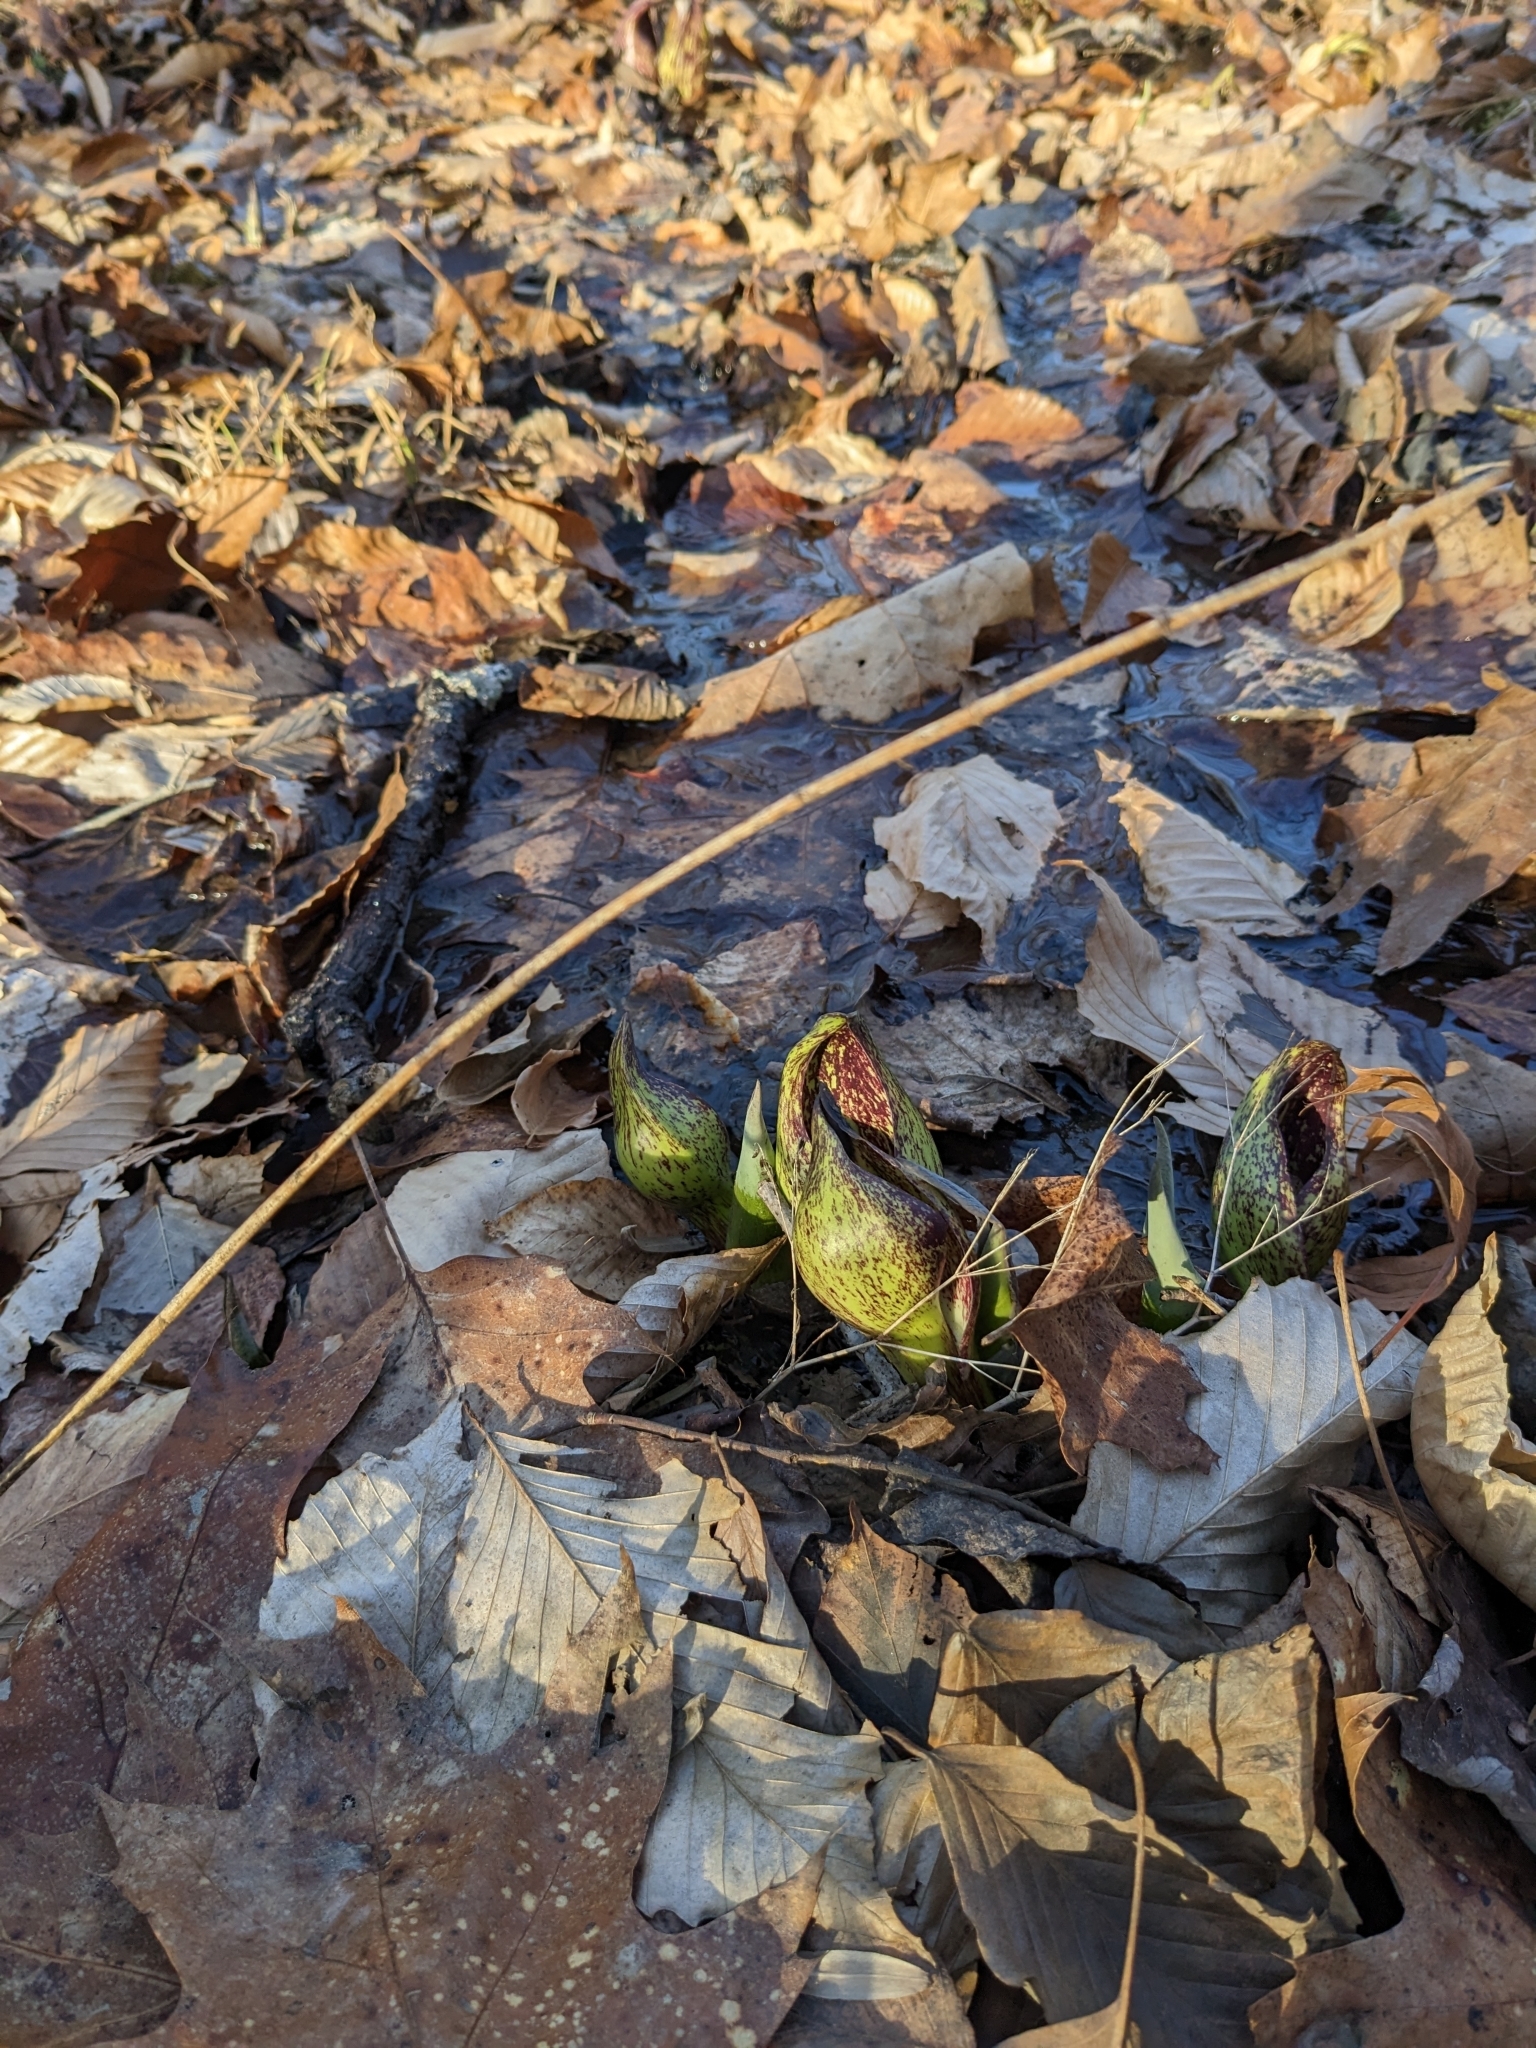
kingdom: Plantae
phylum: Tracheophyta
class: Liliopsida
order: Alismatales
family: Araceae
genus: Symplocarpus
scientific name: Symplocarpus foetidus
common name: Eastern skunk cabbage
